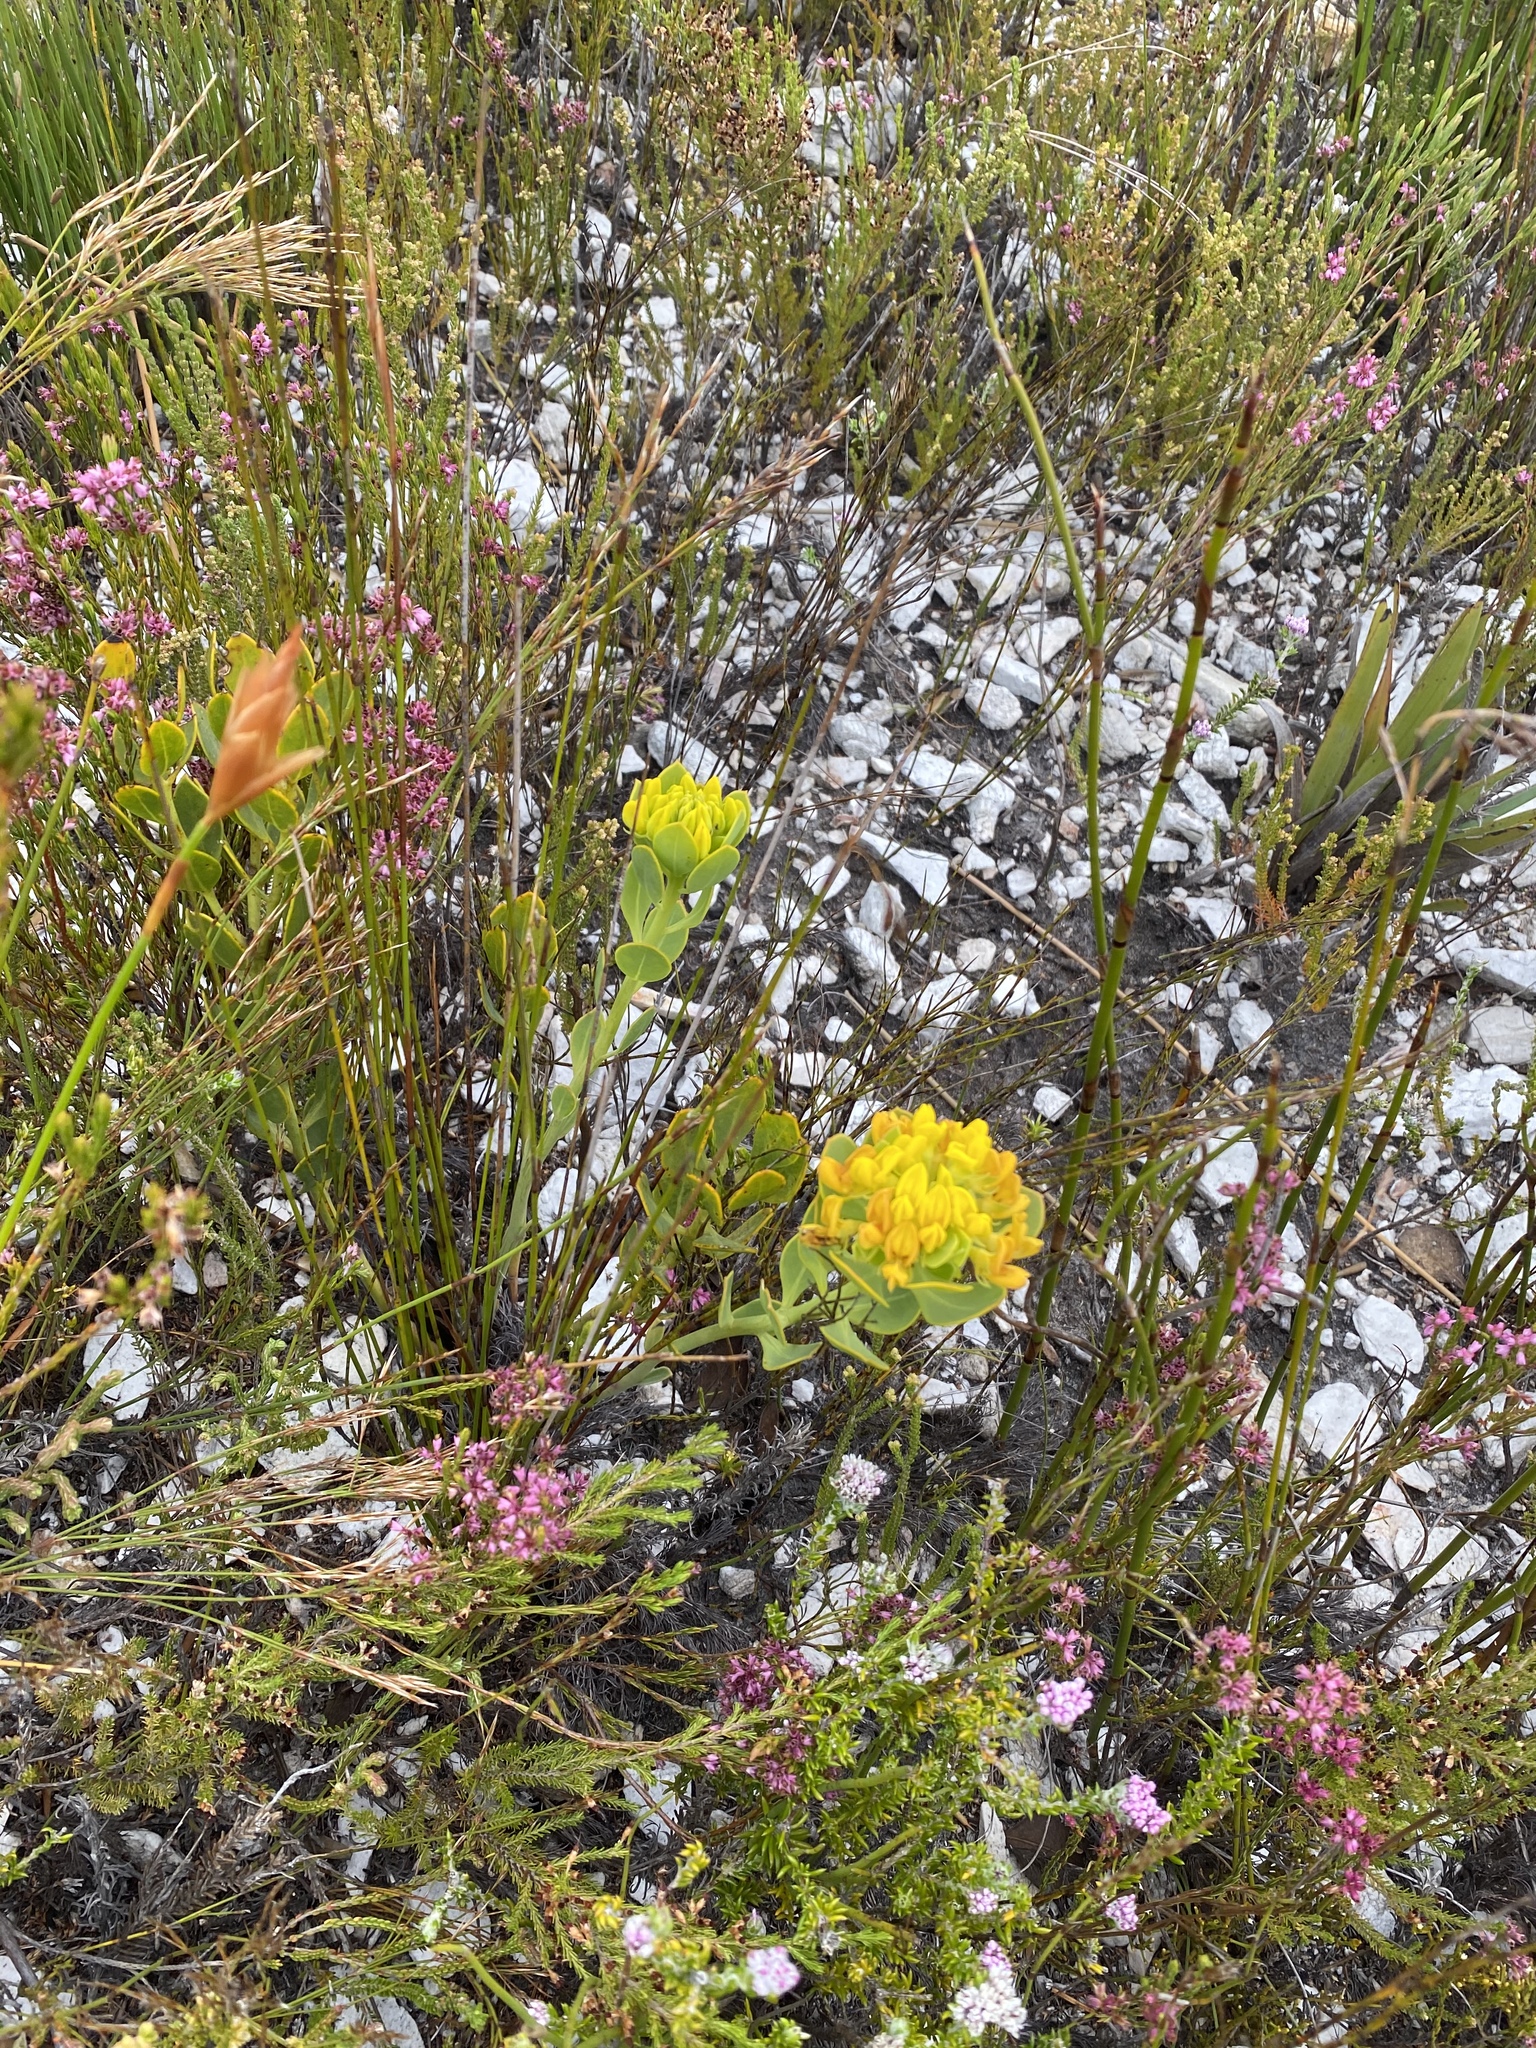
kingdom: Plantae
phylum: Tracheophyta
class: Magnoliopsida
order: Fabales
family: Fabaceae
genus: Rafnia
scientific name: Rafnia capensis
